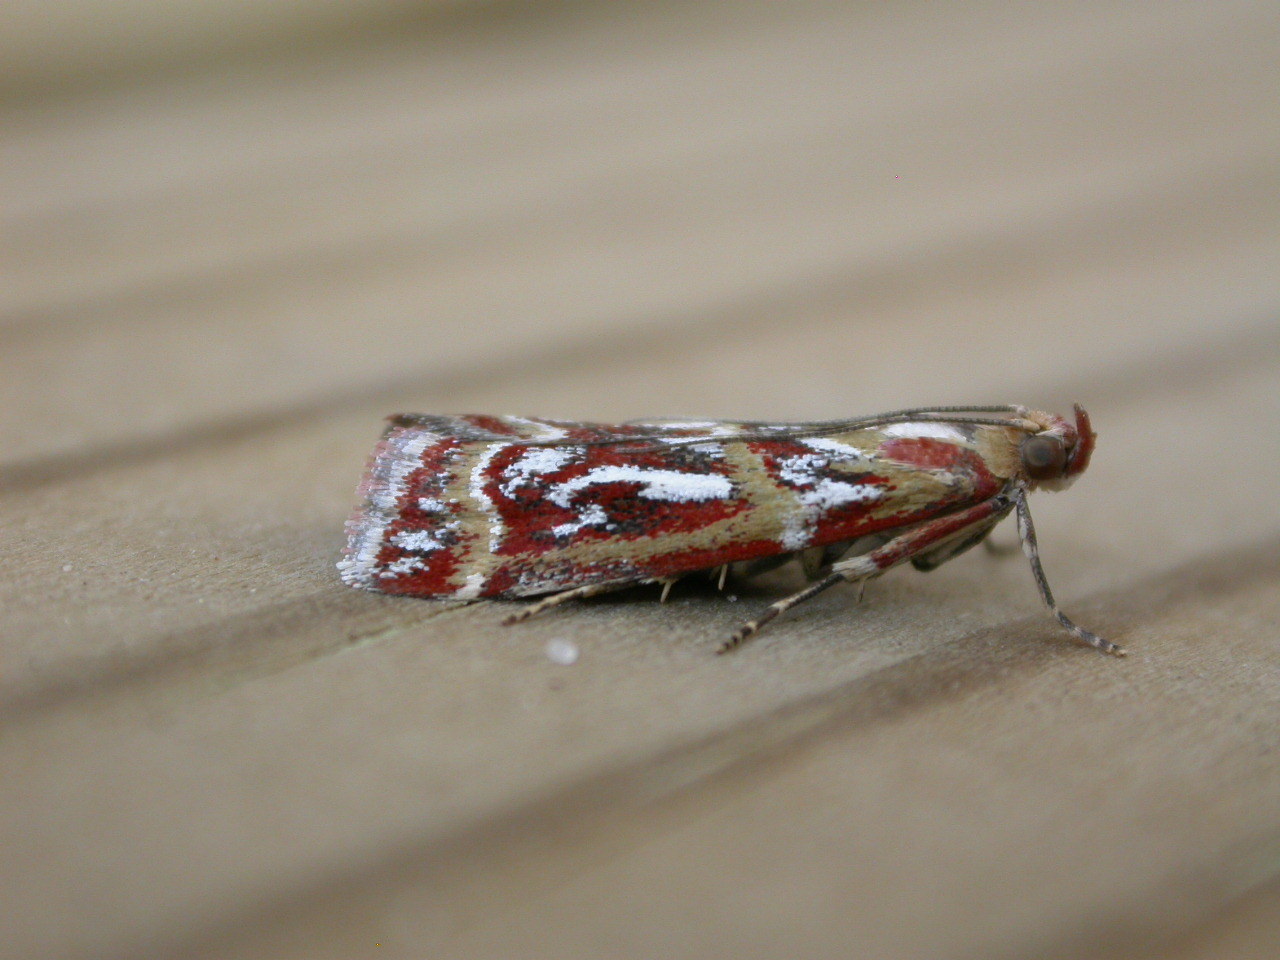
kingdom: Animalia
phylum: Arthropoda
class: Insecta
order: Lepidoptera
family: Pyralidae
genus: Acrobasis
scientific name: Acrobasis porphyrella
